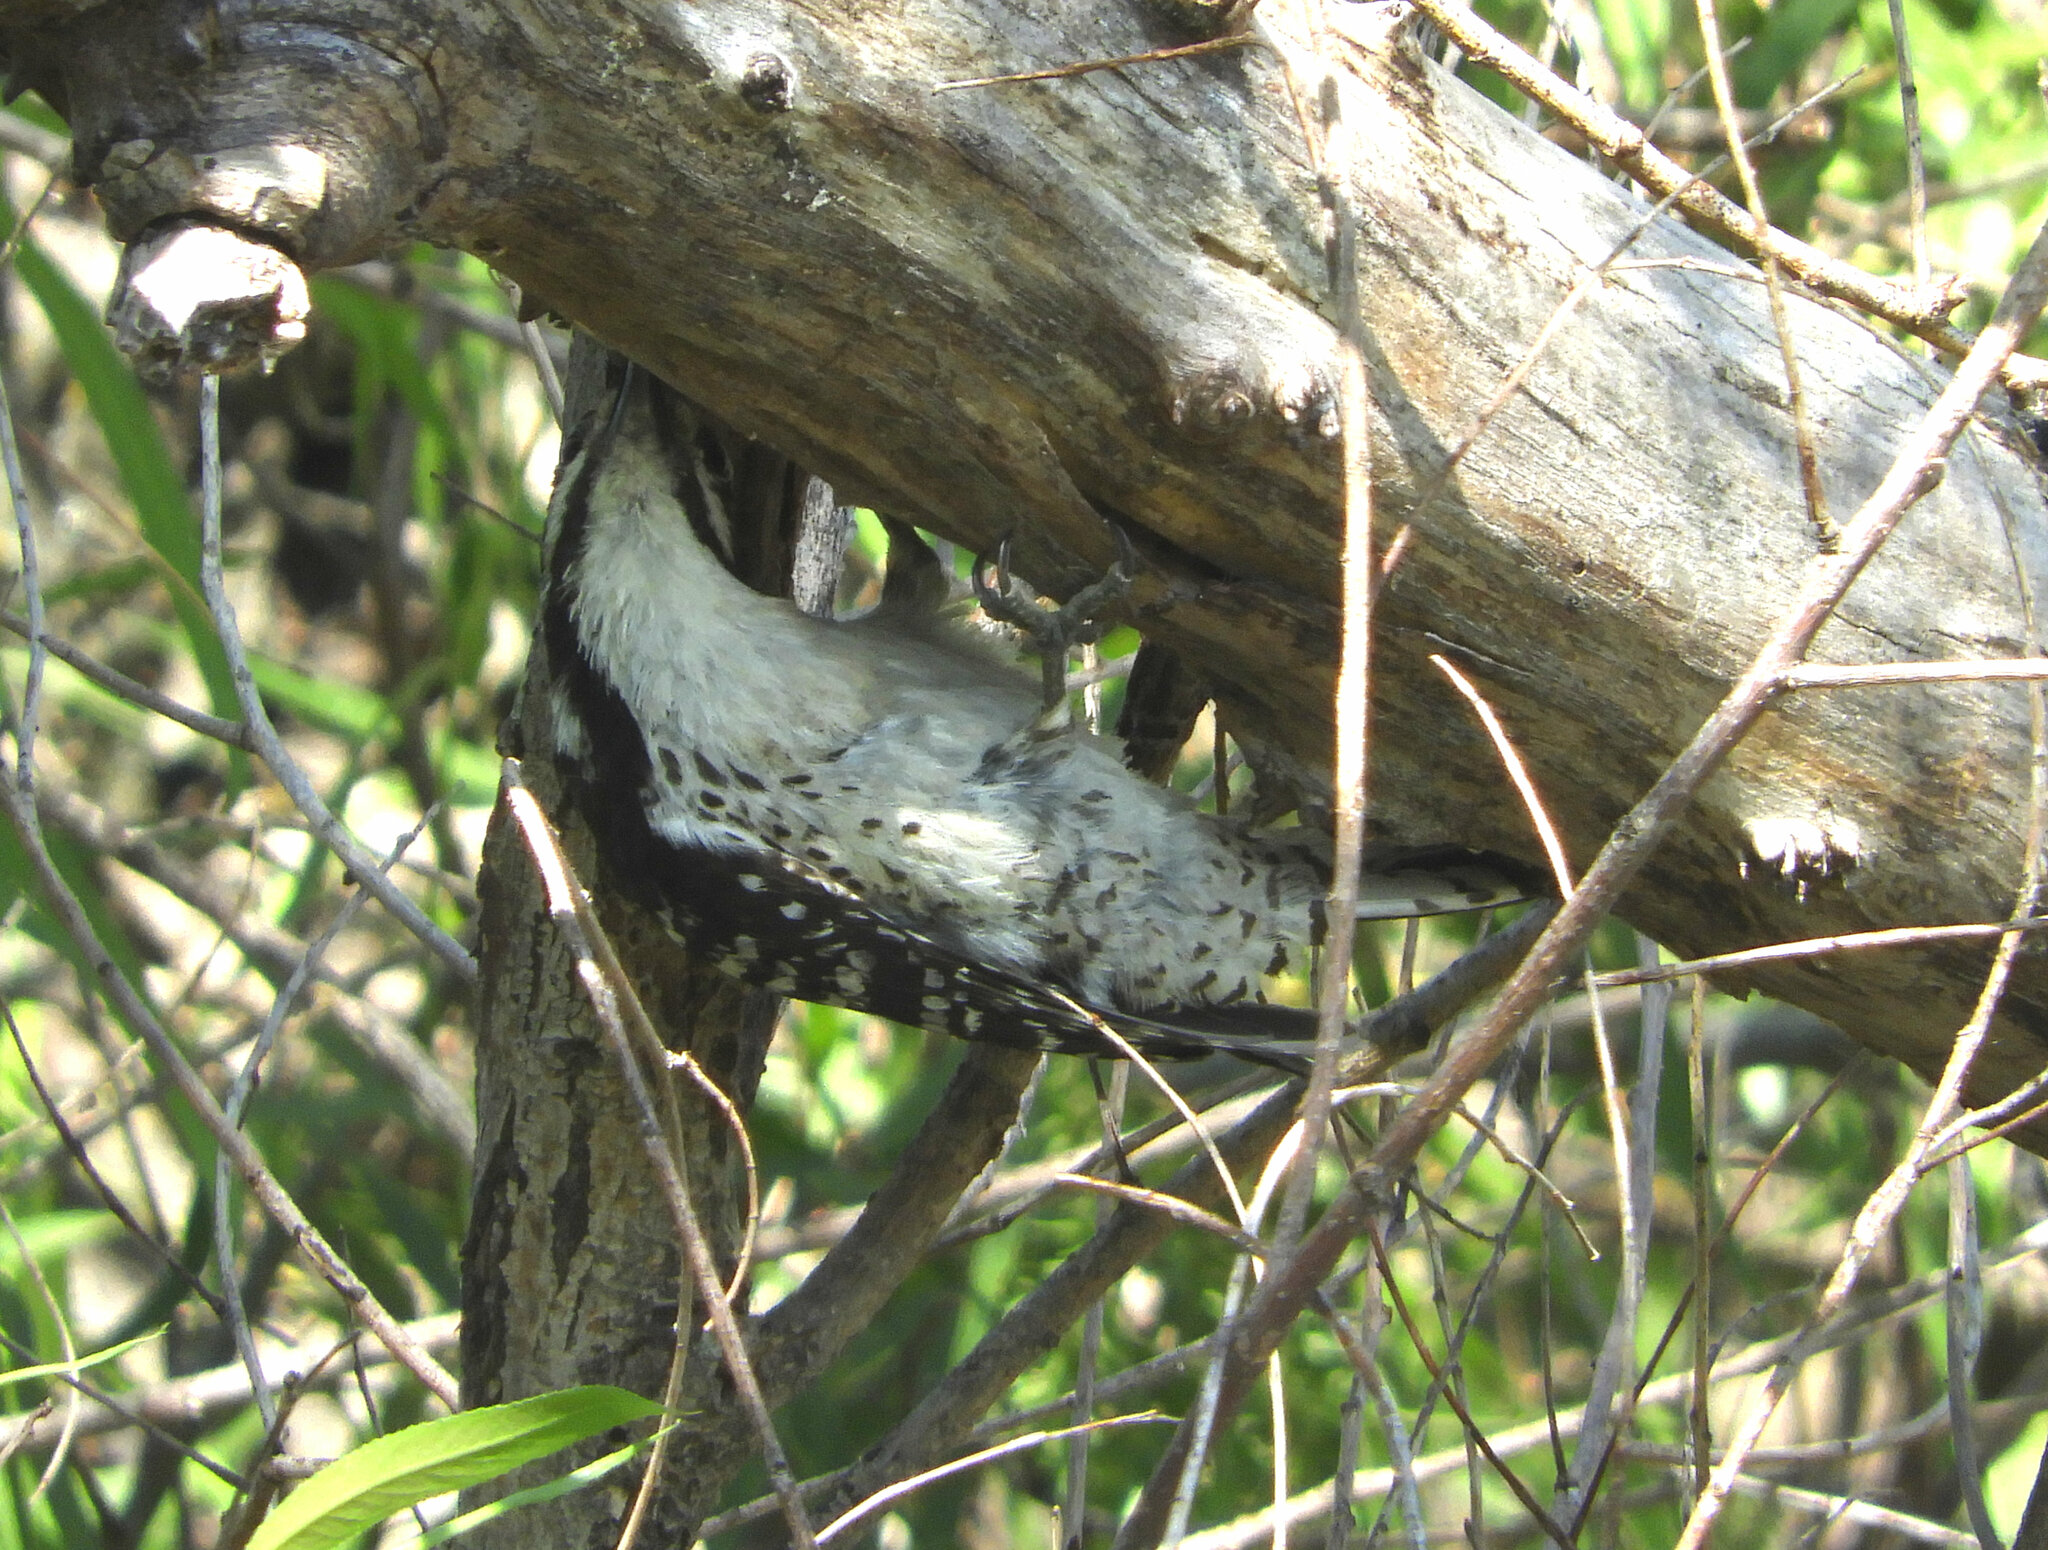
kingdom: Animalia
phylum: Chordata
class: Aves
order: Piciformes
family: Picidae
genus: Dryobates
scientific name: Dryobates nuttallii
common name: Nuttall's woodpecker
